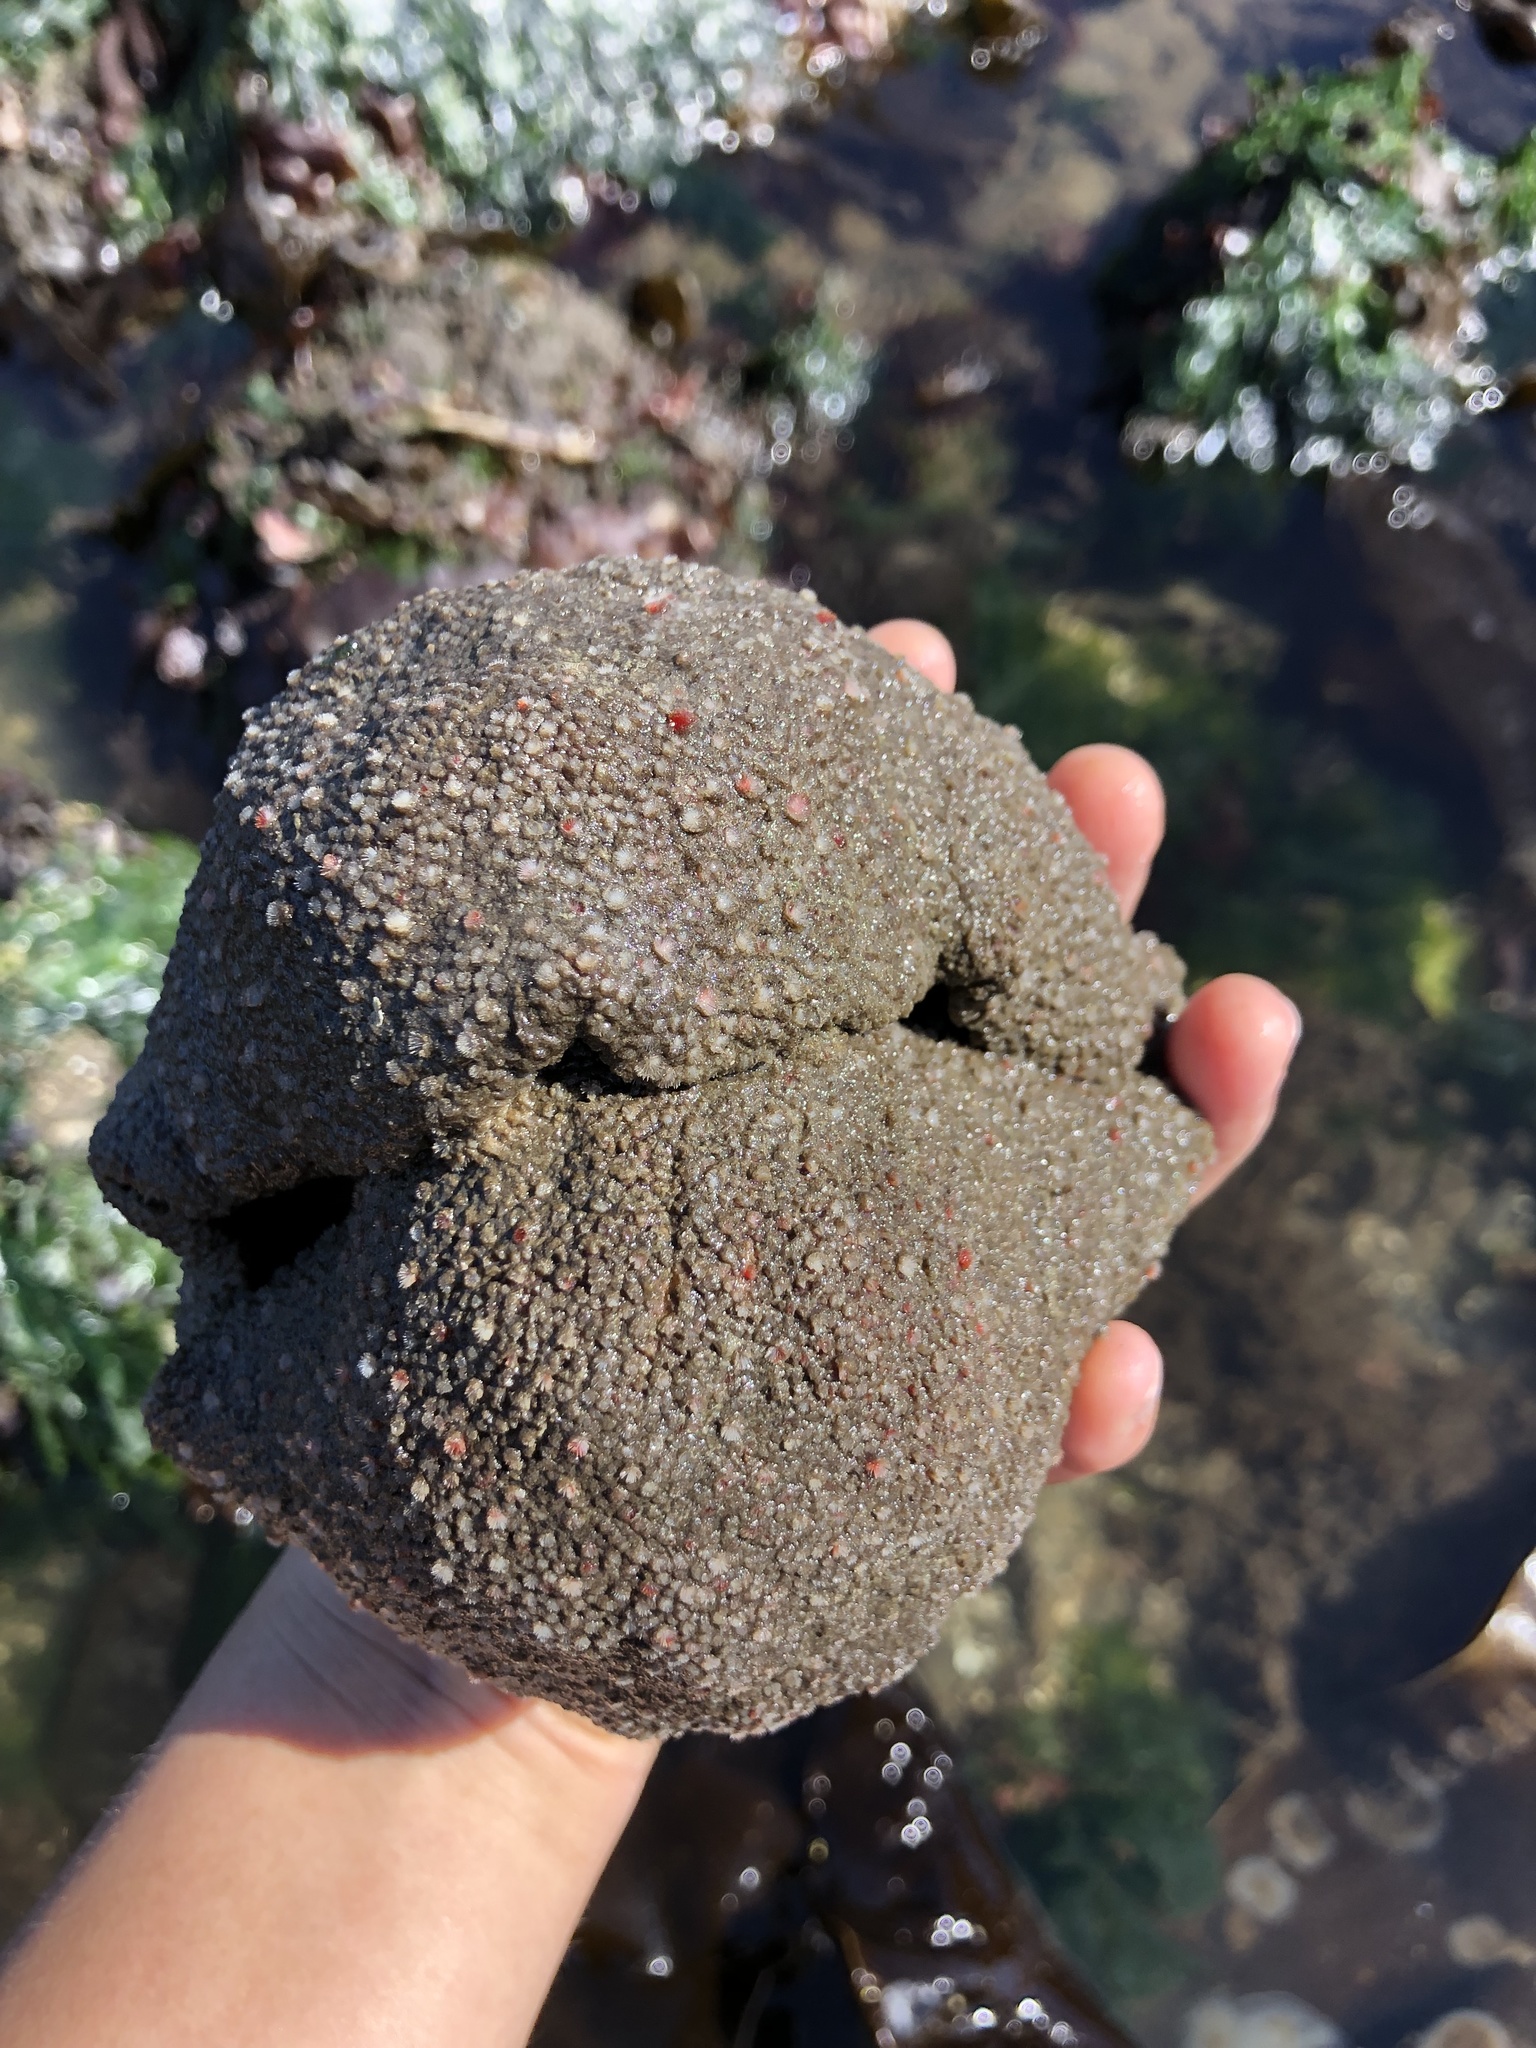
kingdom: Animalia
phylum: Mollusca
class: Polyplacophora
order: Chitonida
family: Acanthochitonidae
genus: Cryptochiton
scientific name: Cryptochiton stelleri
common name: Giant pacific chiton
